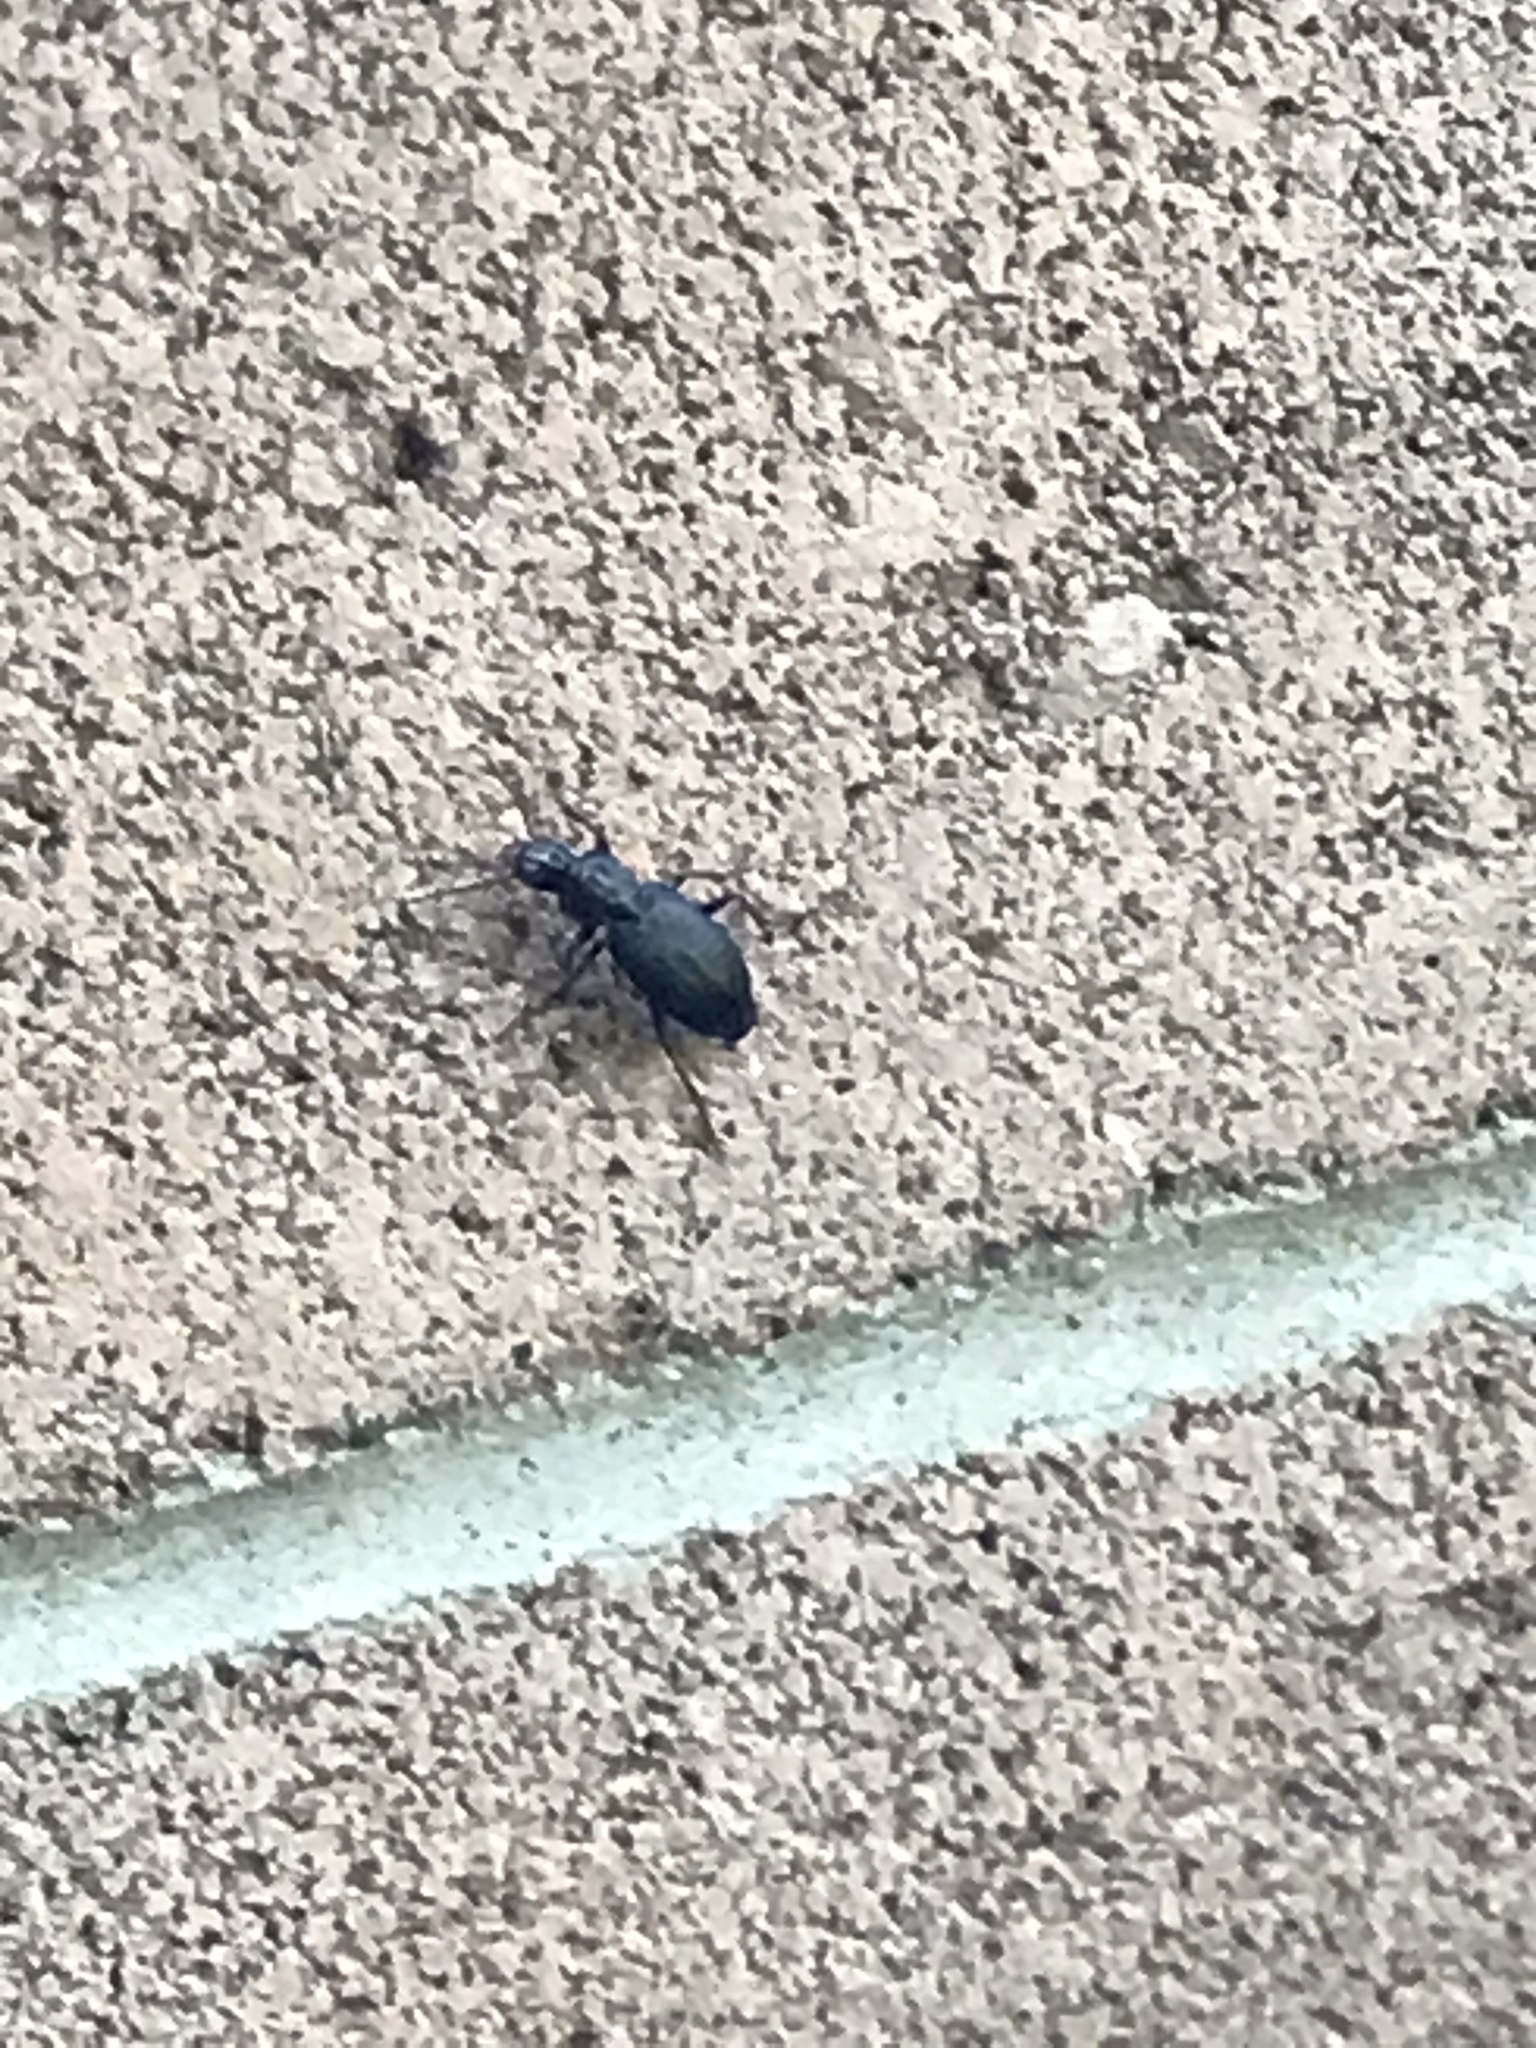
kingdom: Animalia
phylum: Arthropoda
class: Insecta
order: Coleoptera
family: Carabidae
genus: Laemostenus
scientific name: Laemostenus complanatus
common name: Cosmopolitan ground beetle
